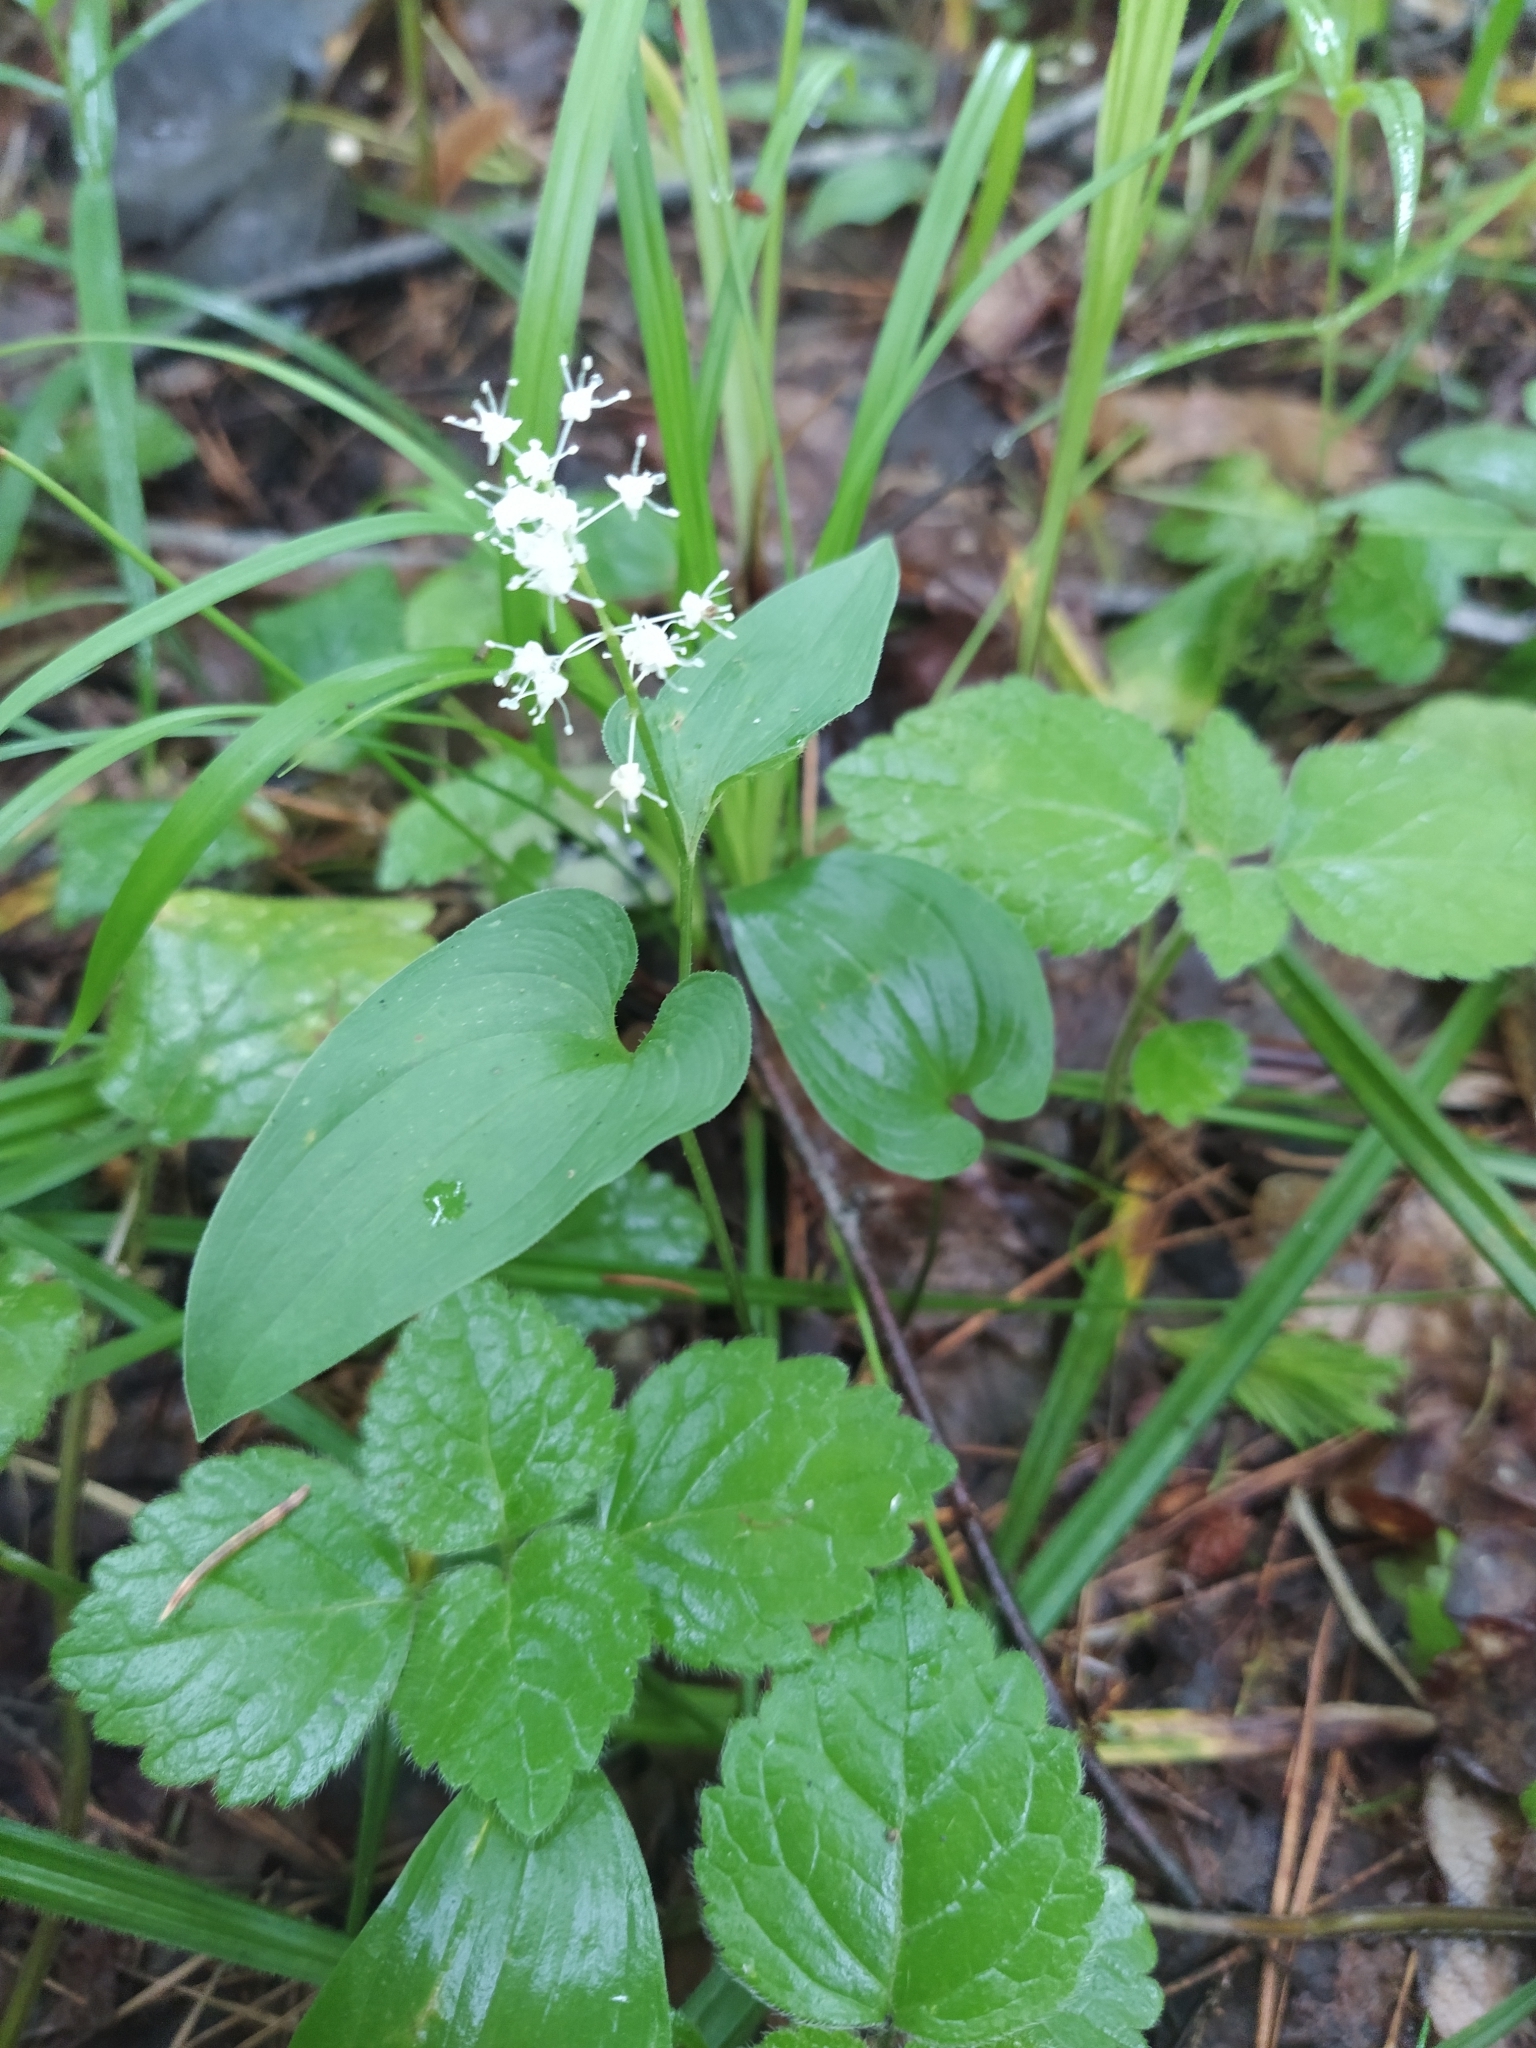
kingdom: Plantae
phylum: Tracheophyta
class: Liliopsida
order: Asparagales
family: Asparagaceae
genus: Maianthemum
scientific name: Maianthemum bifolium
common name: May lily
